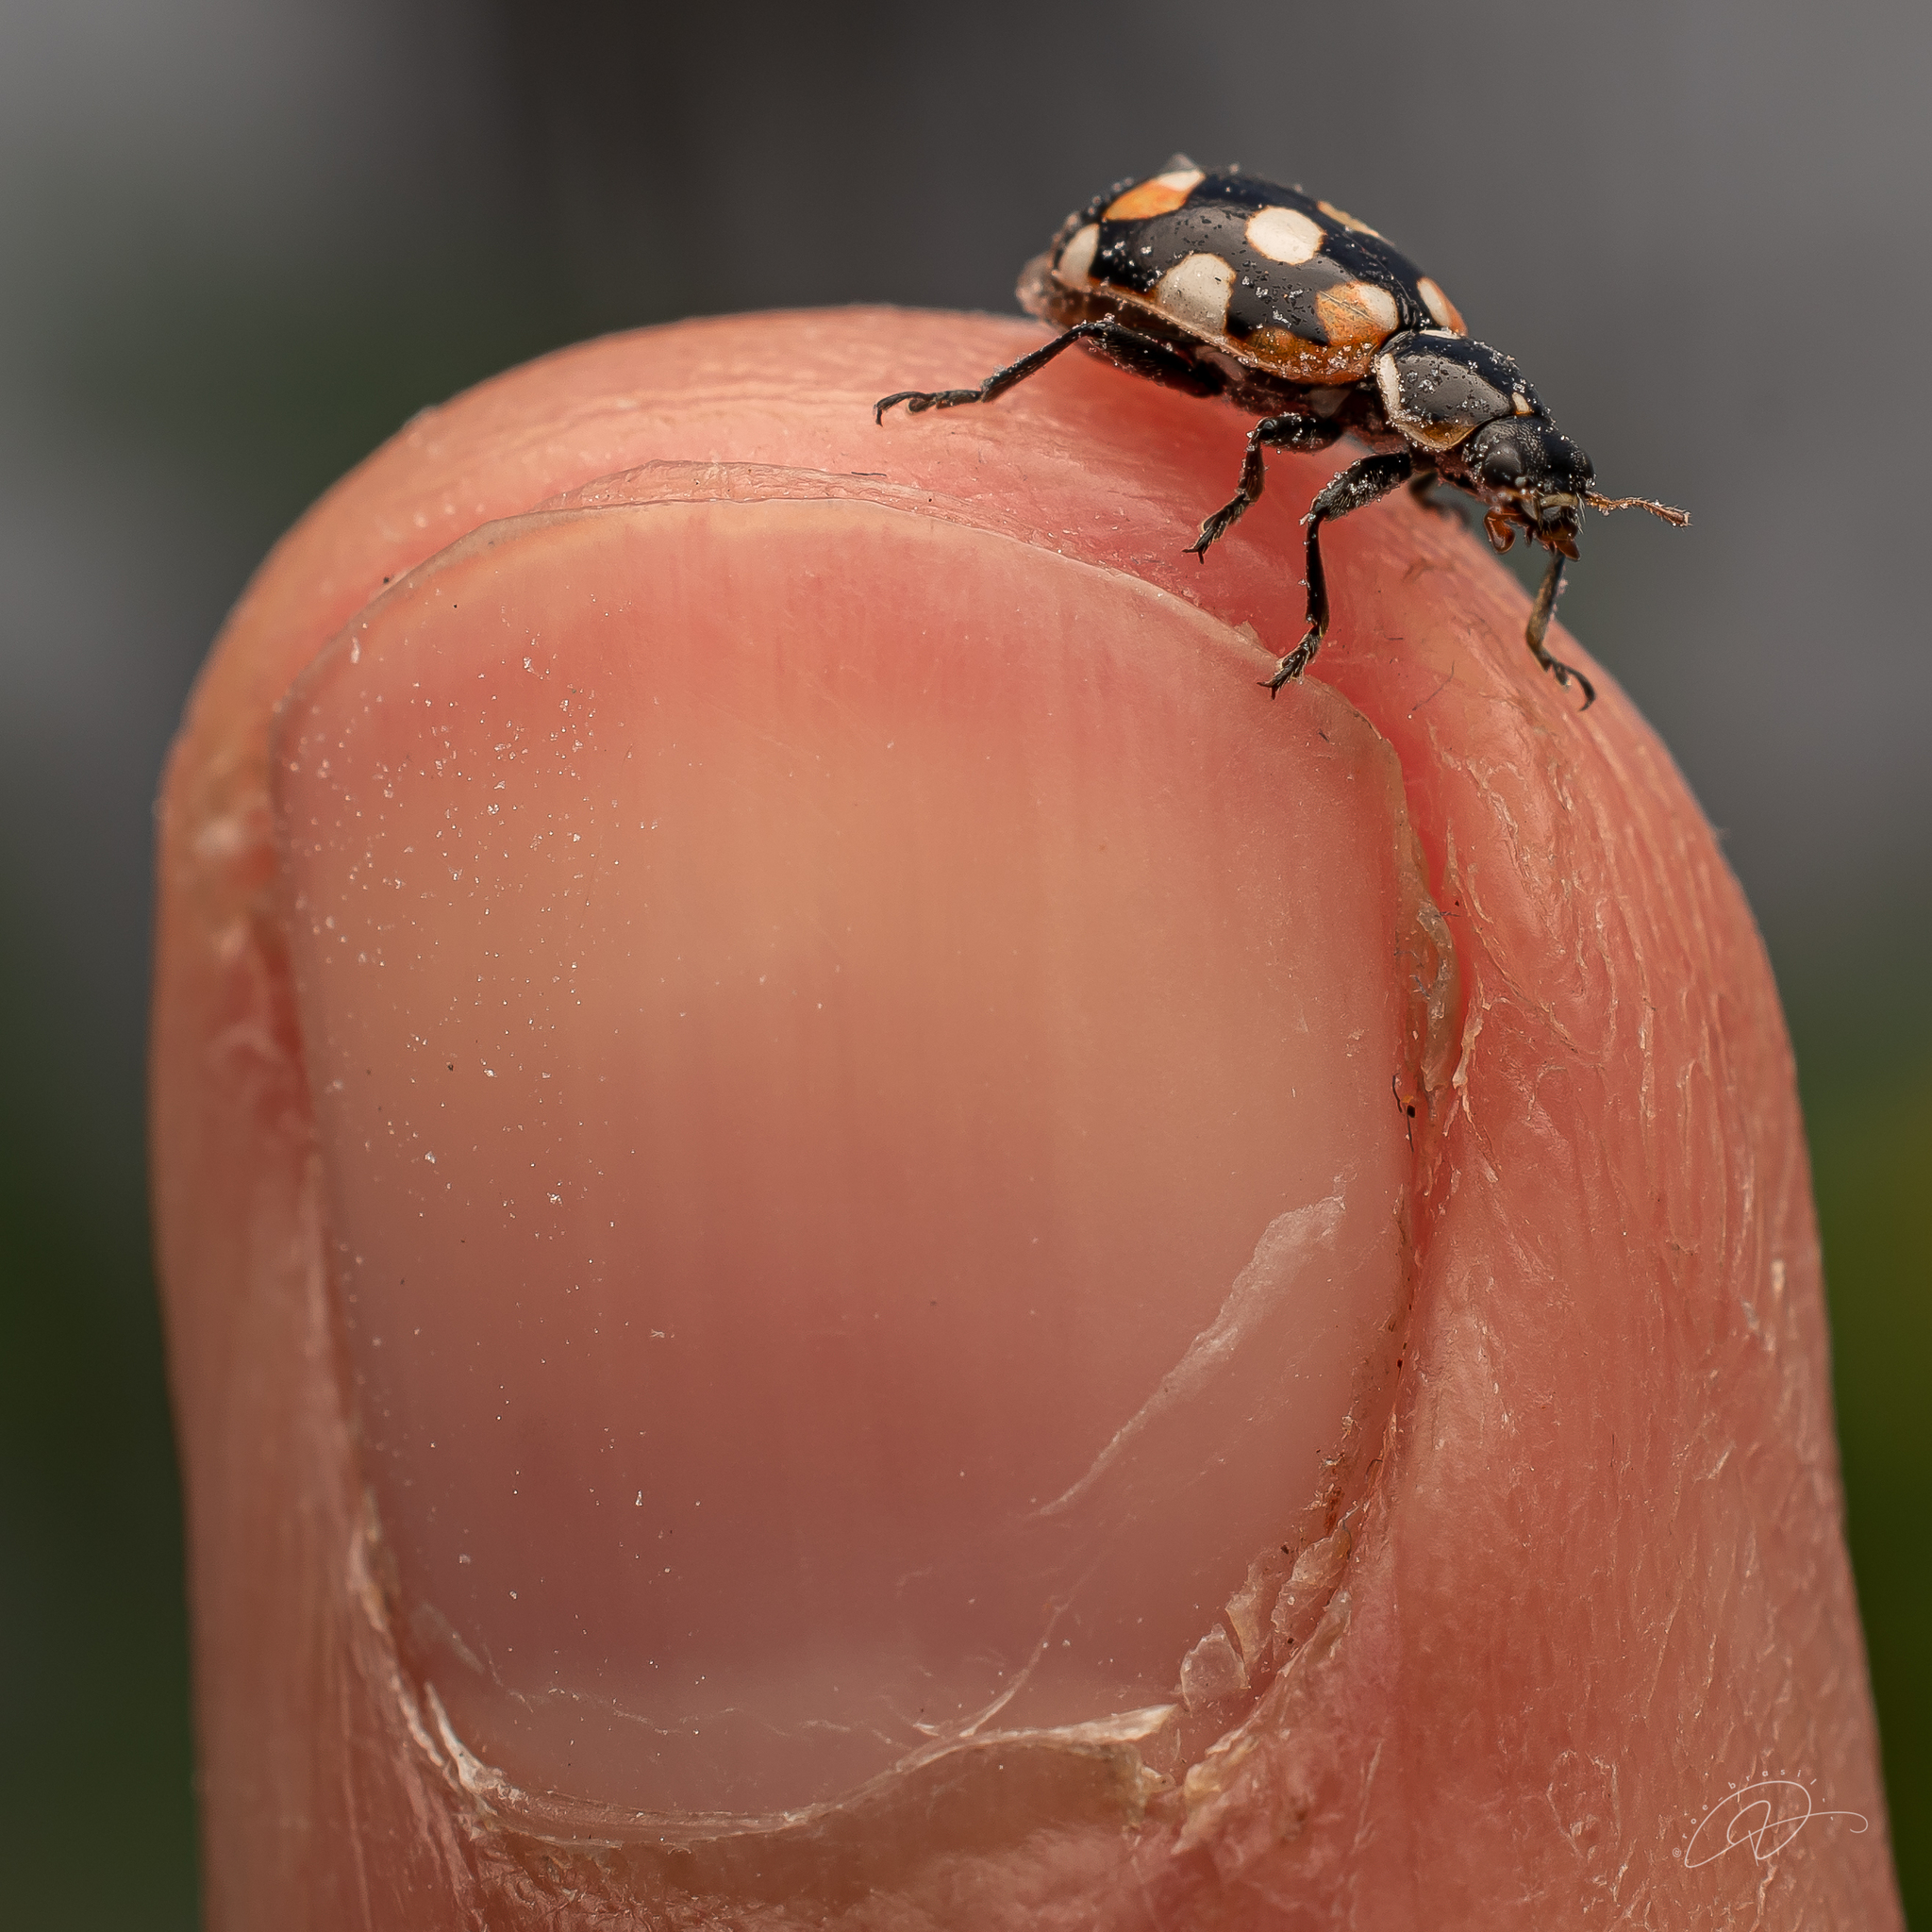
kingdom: Animalia
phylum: Arthropoda
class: Insecta
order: Coleoptera
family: Coccinellidae
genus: Eriopis
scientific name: Eriopis connexa
